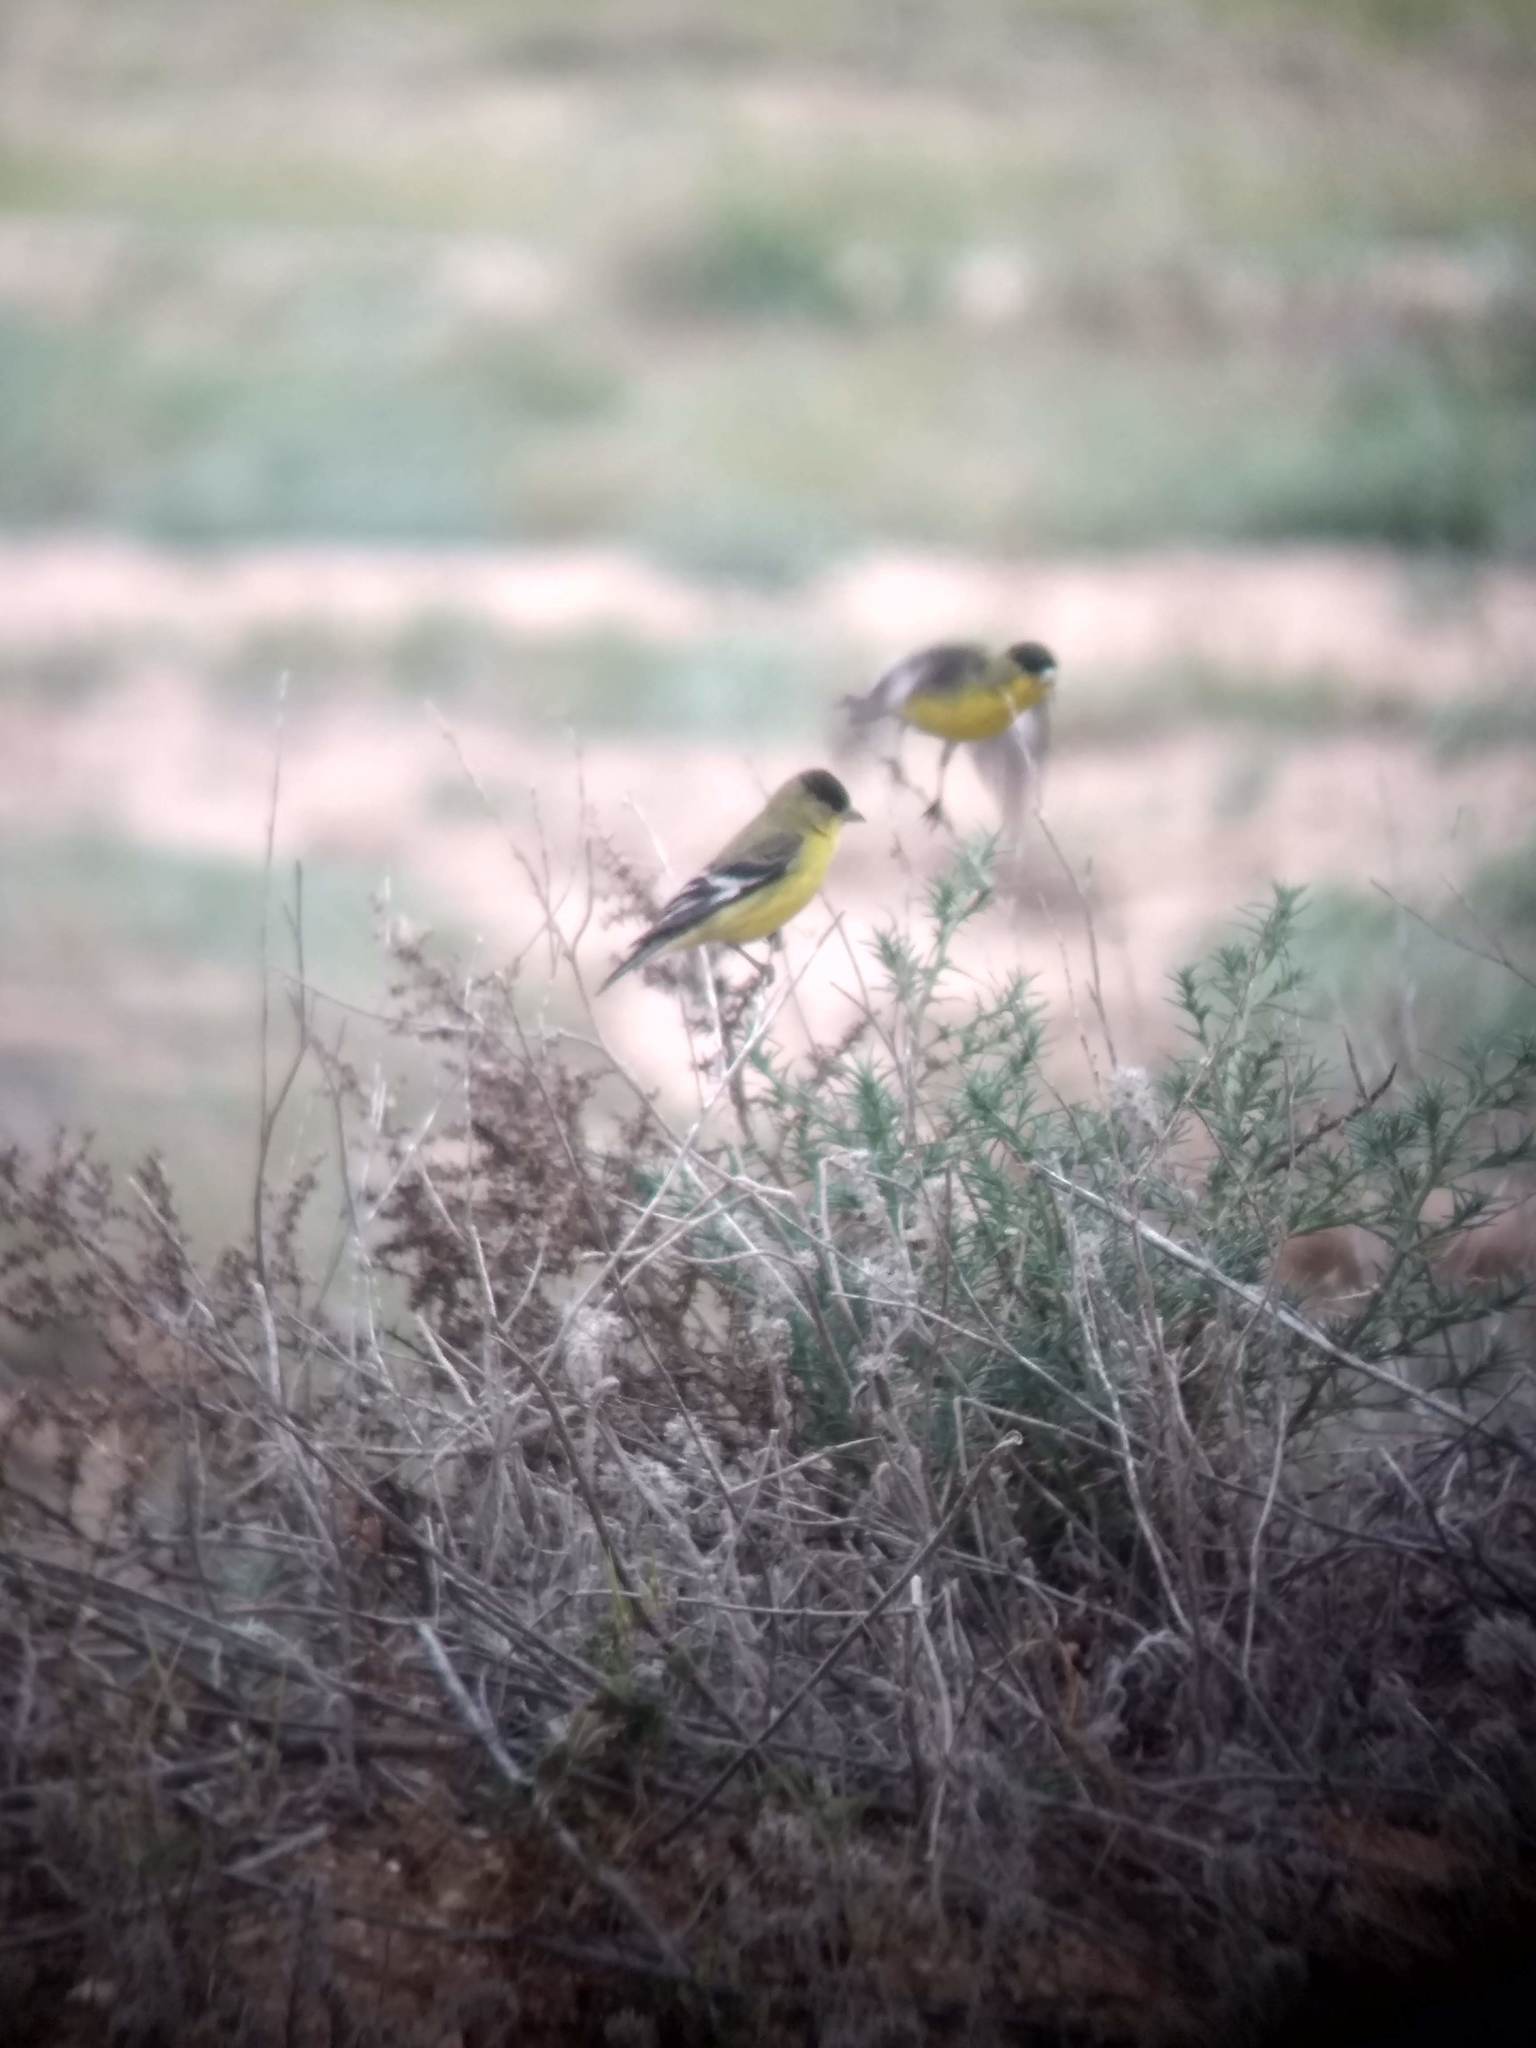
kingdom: Animalia
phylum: Chordata
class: Aves
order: Passeriformes
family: Fringillidae
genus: Spinus
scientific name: Spinus psaltria
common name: Lesser goldfinch
